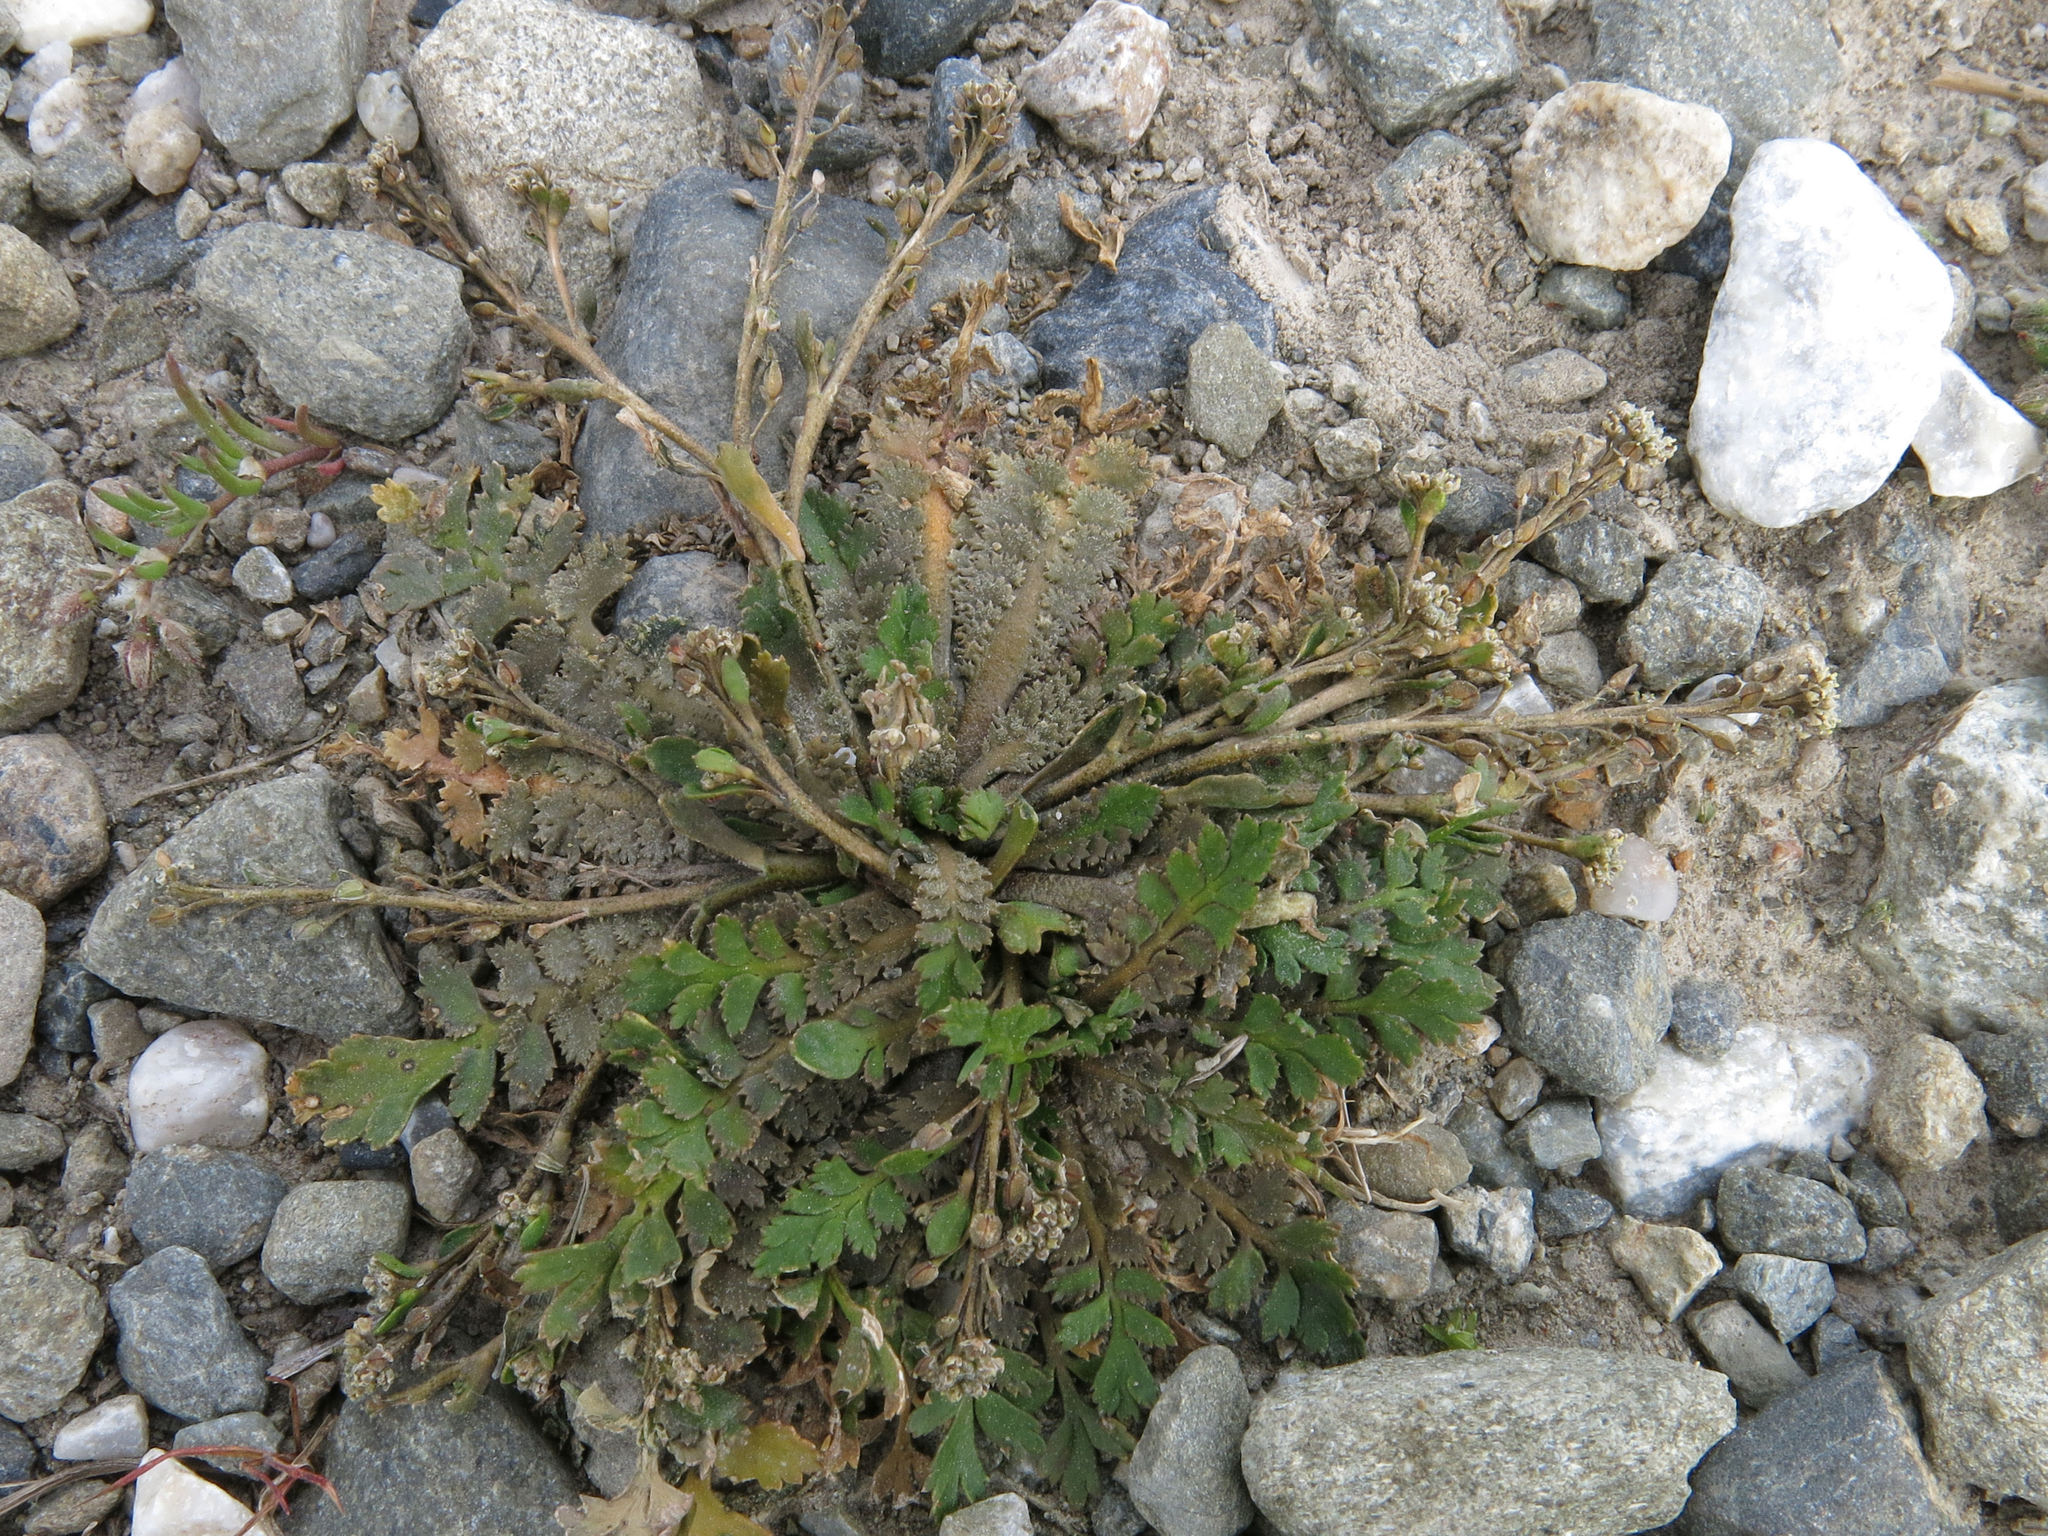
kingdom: Plantae
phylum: Tracheophyta
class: Magnoliopsida
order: Brassicales
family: Brassicaceae
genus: Lepidium
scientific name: Lepidium tenuicaule
